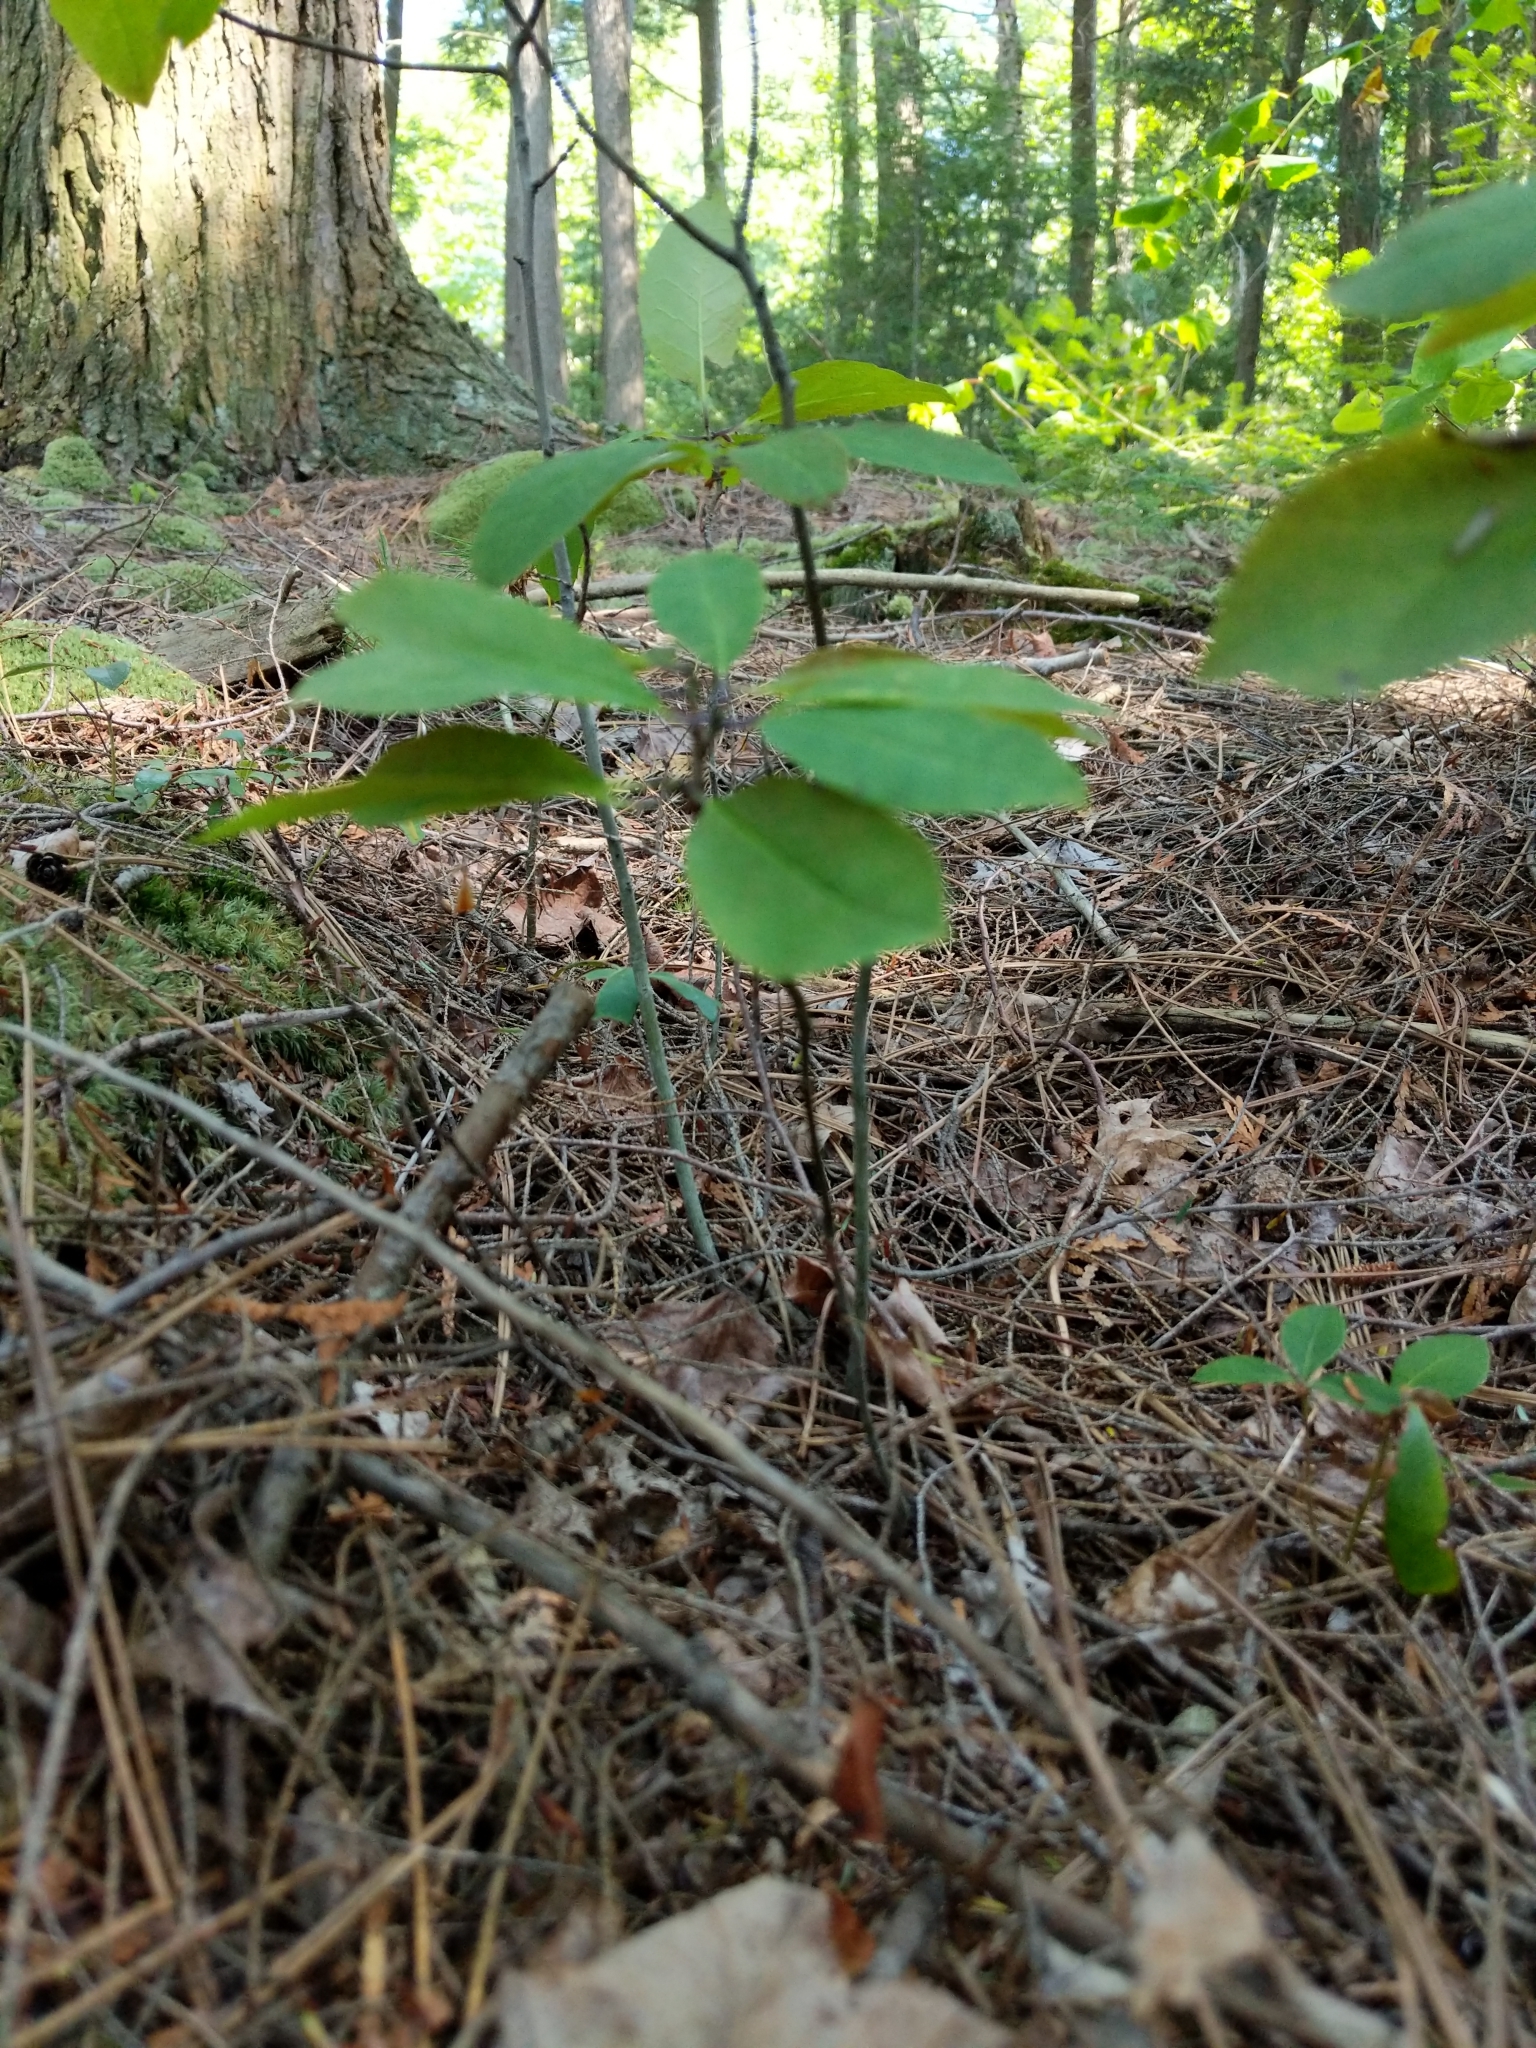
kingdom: Plantae
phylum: Tracheophyta
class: Magnoliopsida
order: Aquifoliales
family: Aquifoliaceae
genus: Ilex
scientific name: Ilex mucronata
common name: Catberry
